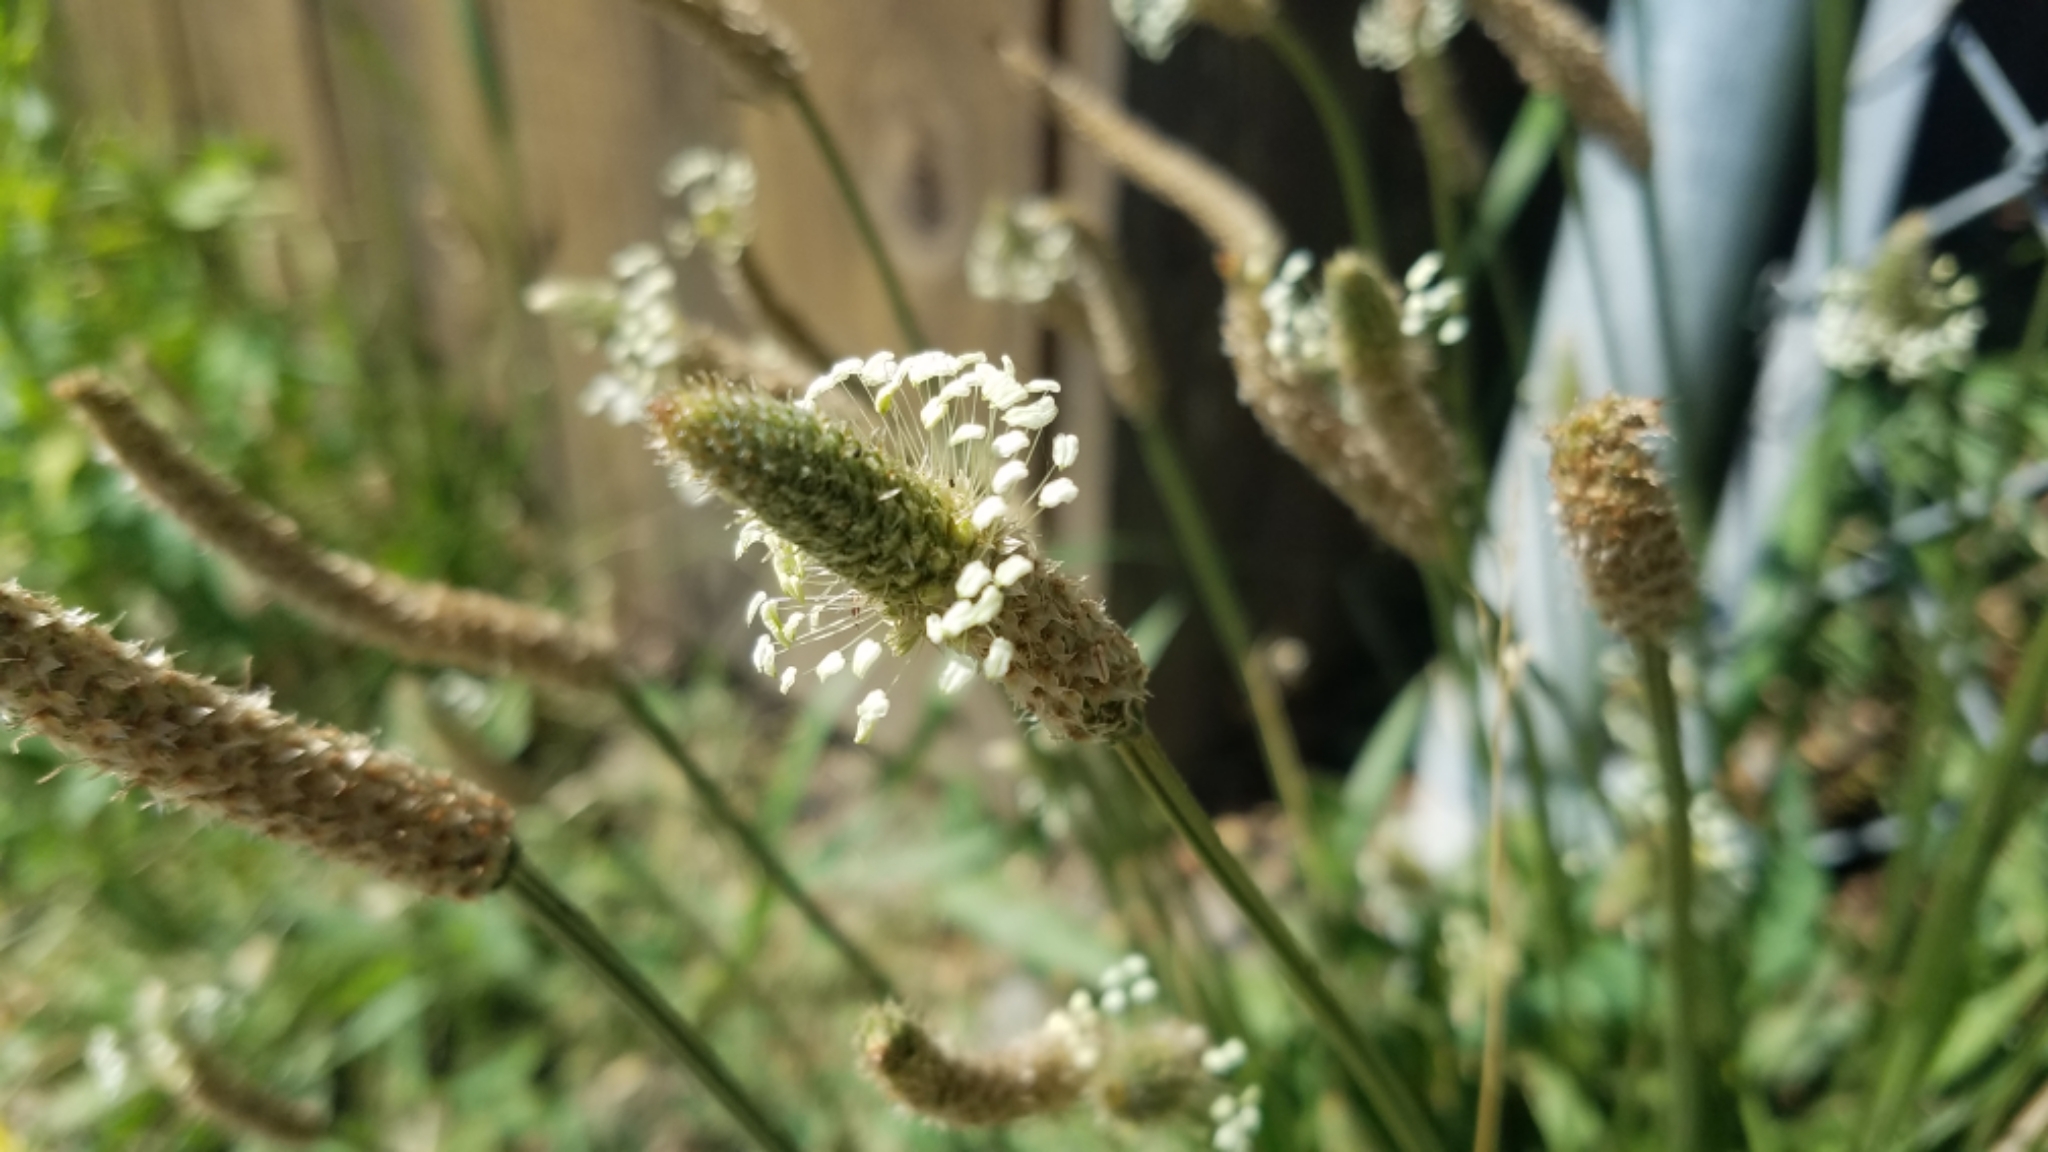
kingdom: Plantae
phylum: Tracheophyta
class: Magnoliopsida
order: Lamiales
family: Plantaginaceae
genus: Plantago
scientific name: Plantago lanceolata
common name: Ribwort plantain
